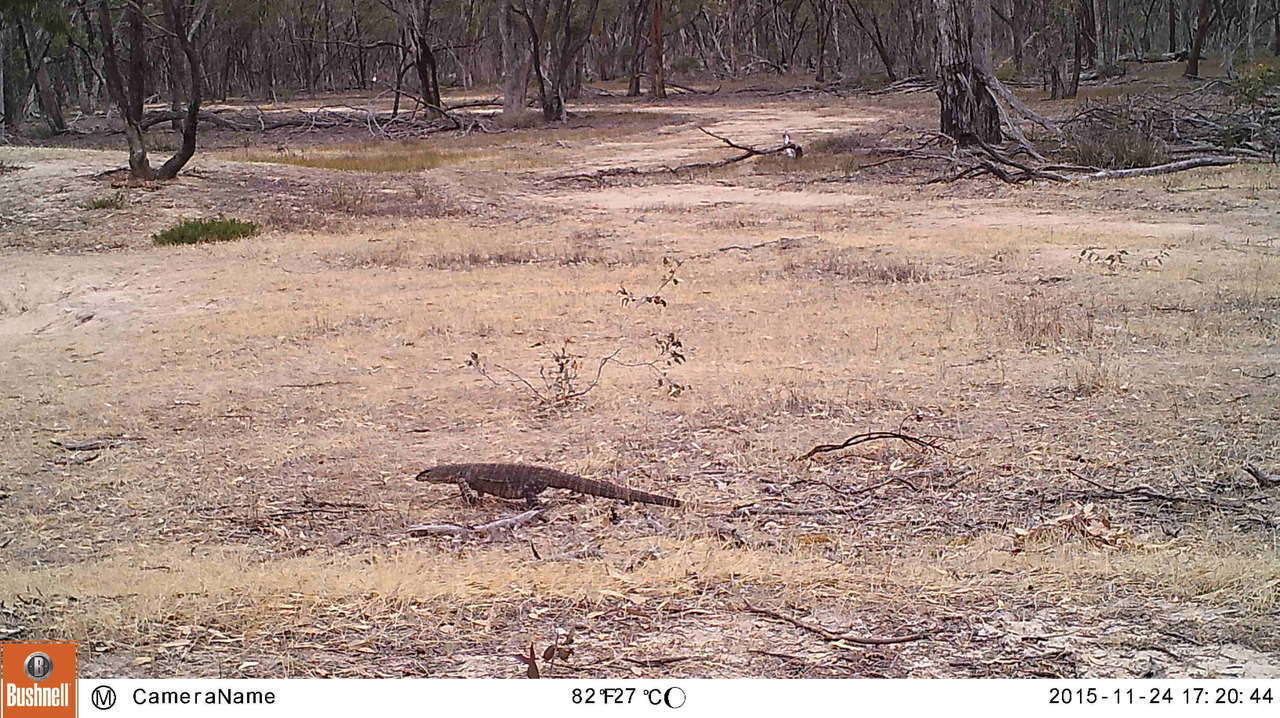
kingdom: Animalia
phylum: Chordata
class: Squamata
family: Varanidae
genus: Varanus
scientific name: Varanus varius
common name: Lace monitor
